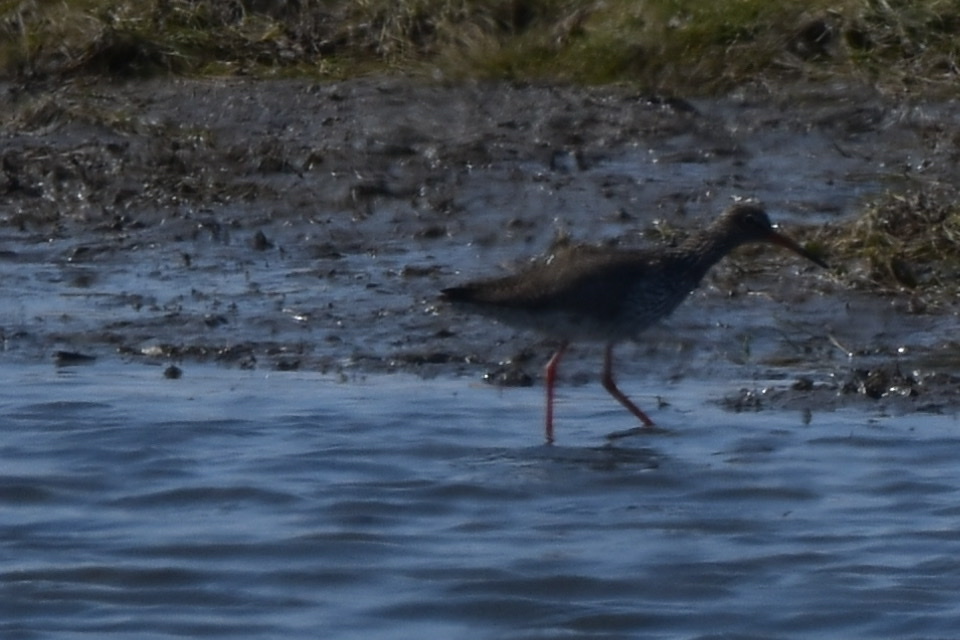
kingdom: Animalia
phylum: Chordata
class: Aves
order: Charadriiformes
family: Scolopacidae
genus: Tringa
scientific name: Tringa totanus
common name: Common redshank
